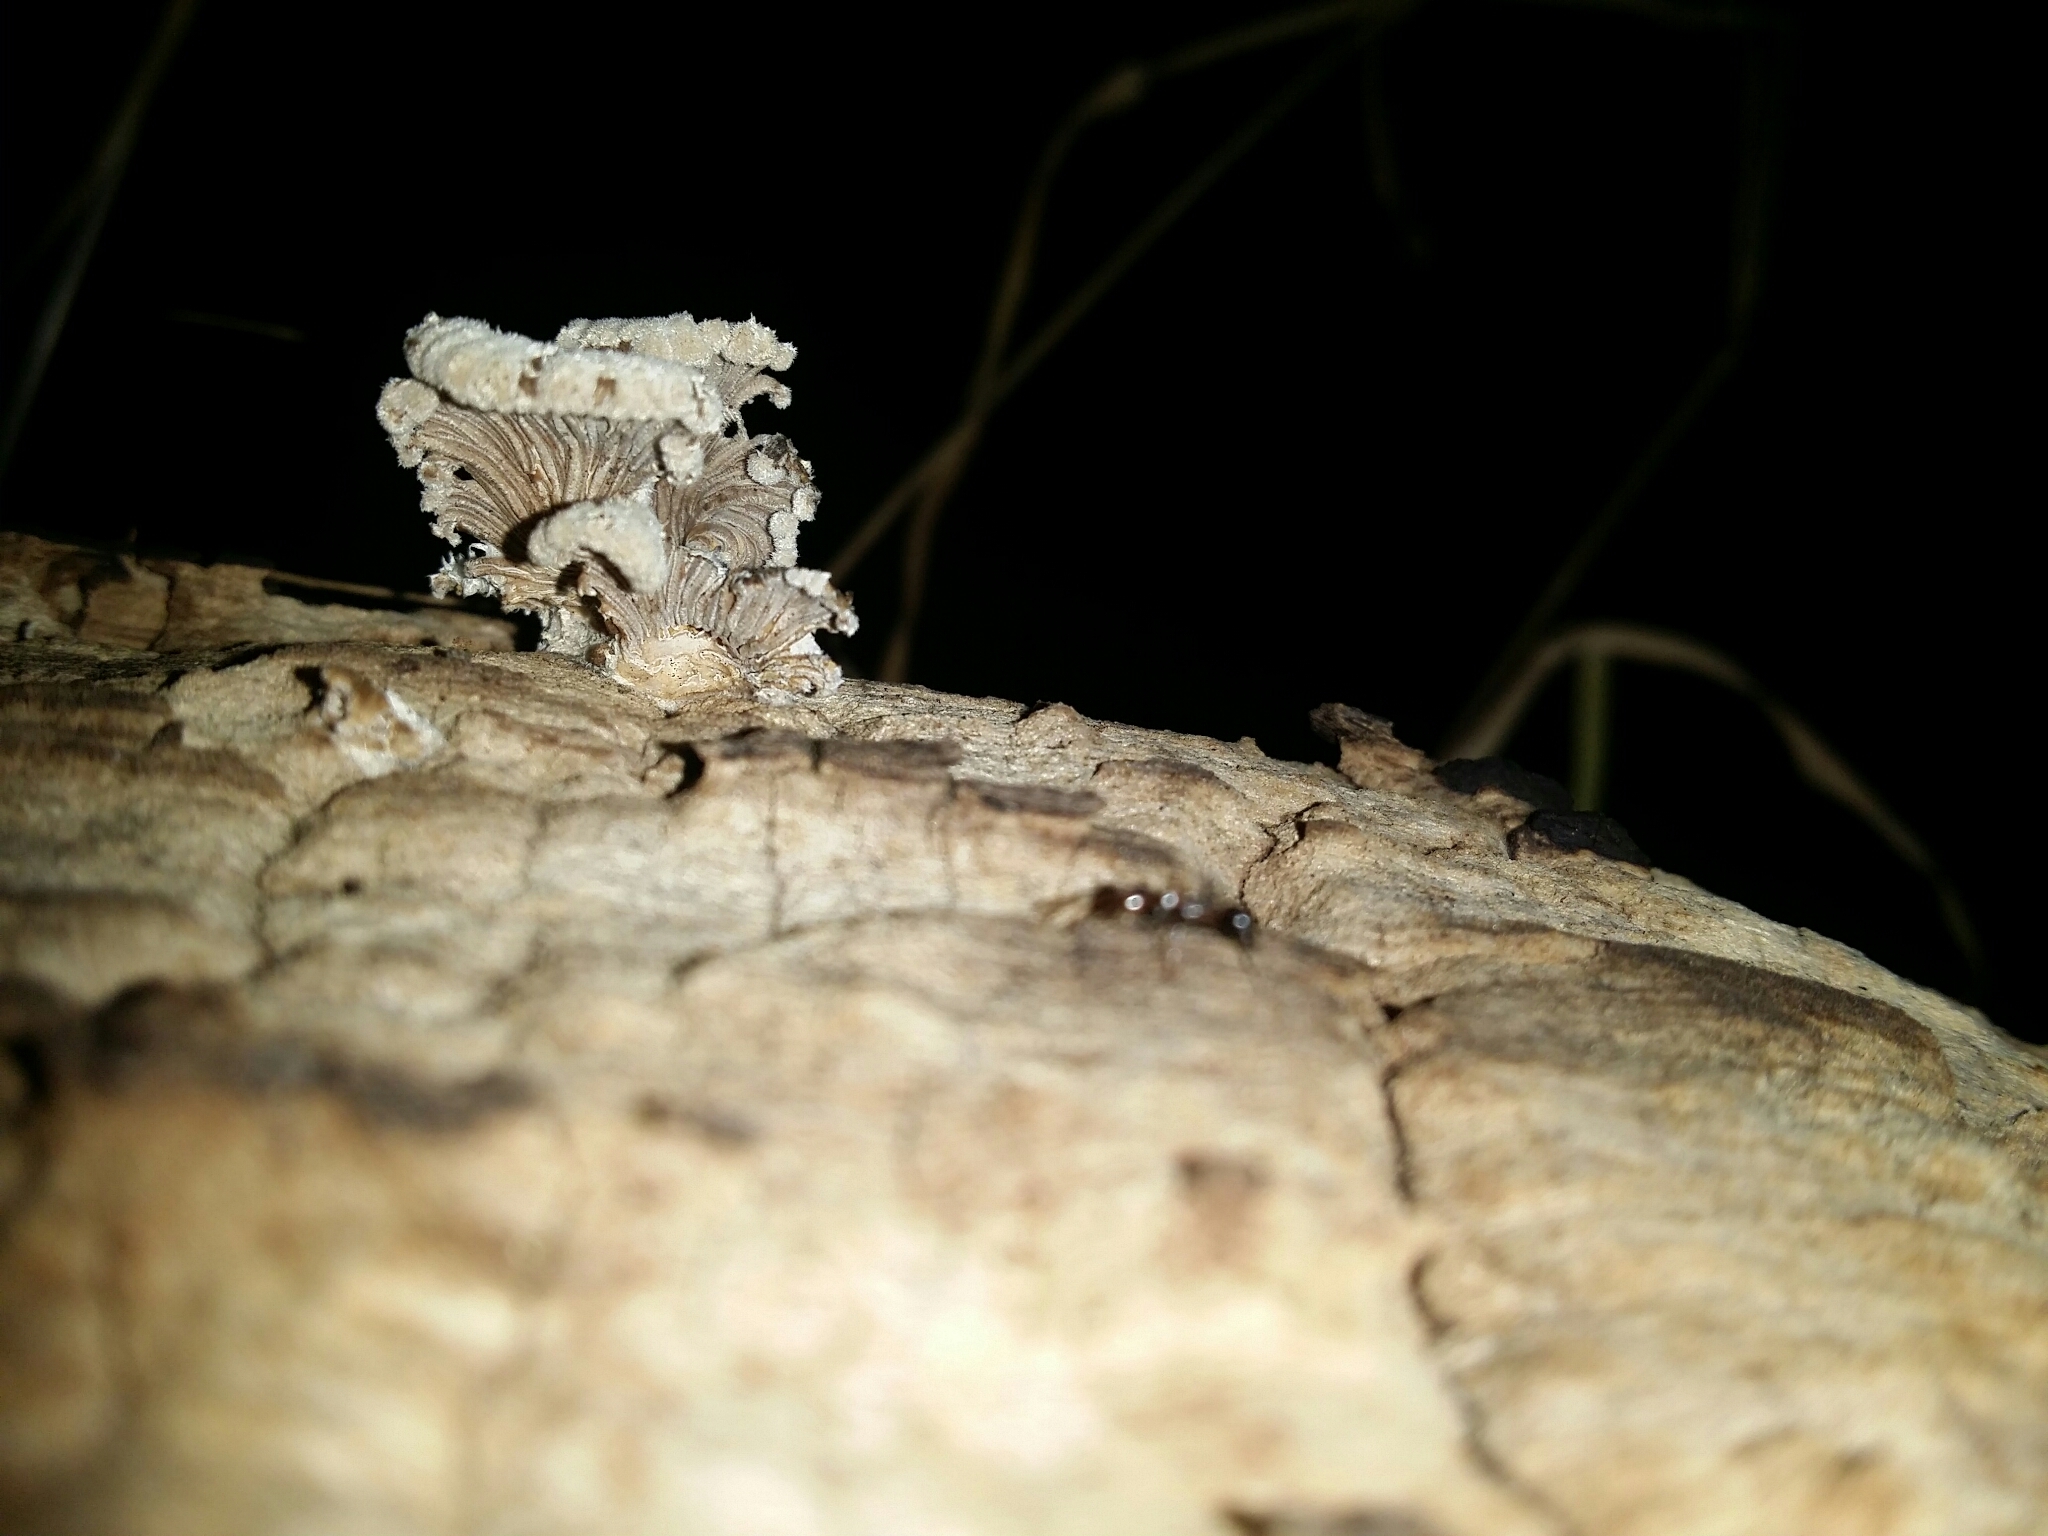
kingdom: Fungi
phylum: Basidiomycota
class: Agaricomycetes
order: Agaricales
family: Schizophyllaceae
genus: Schizophyllum
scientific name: Schizophyllum commune
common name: Common porecrust
